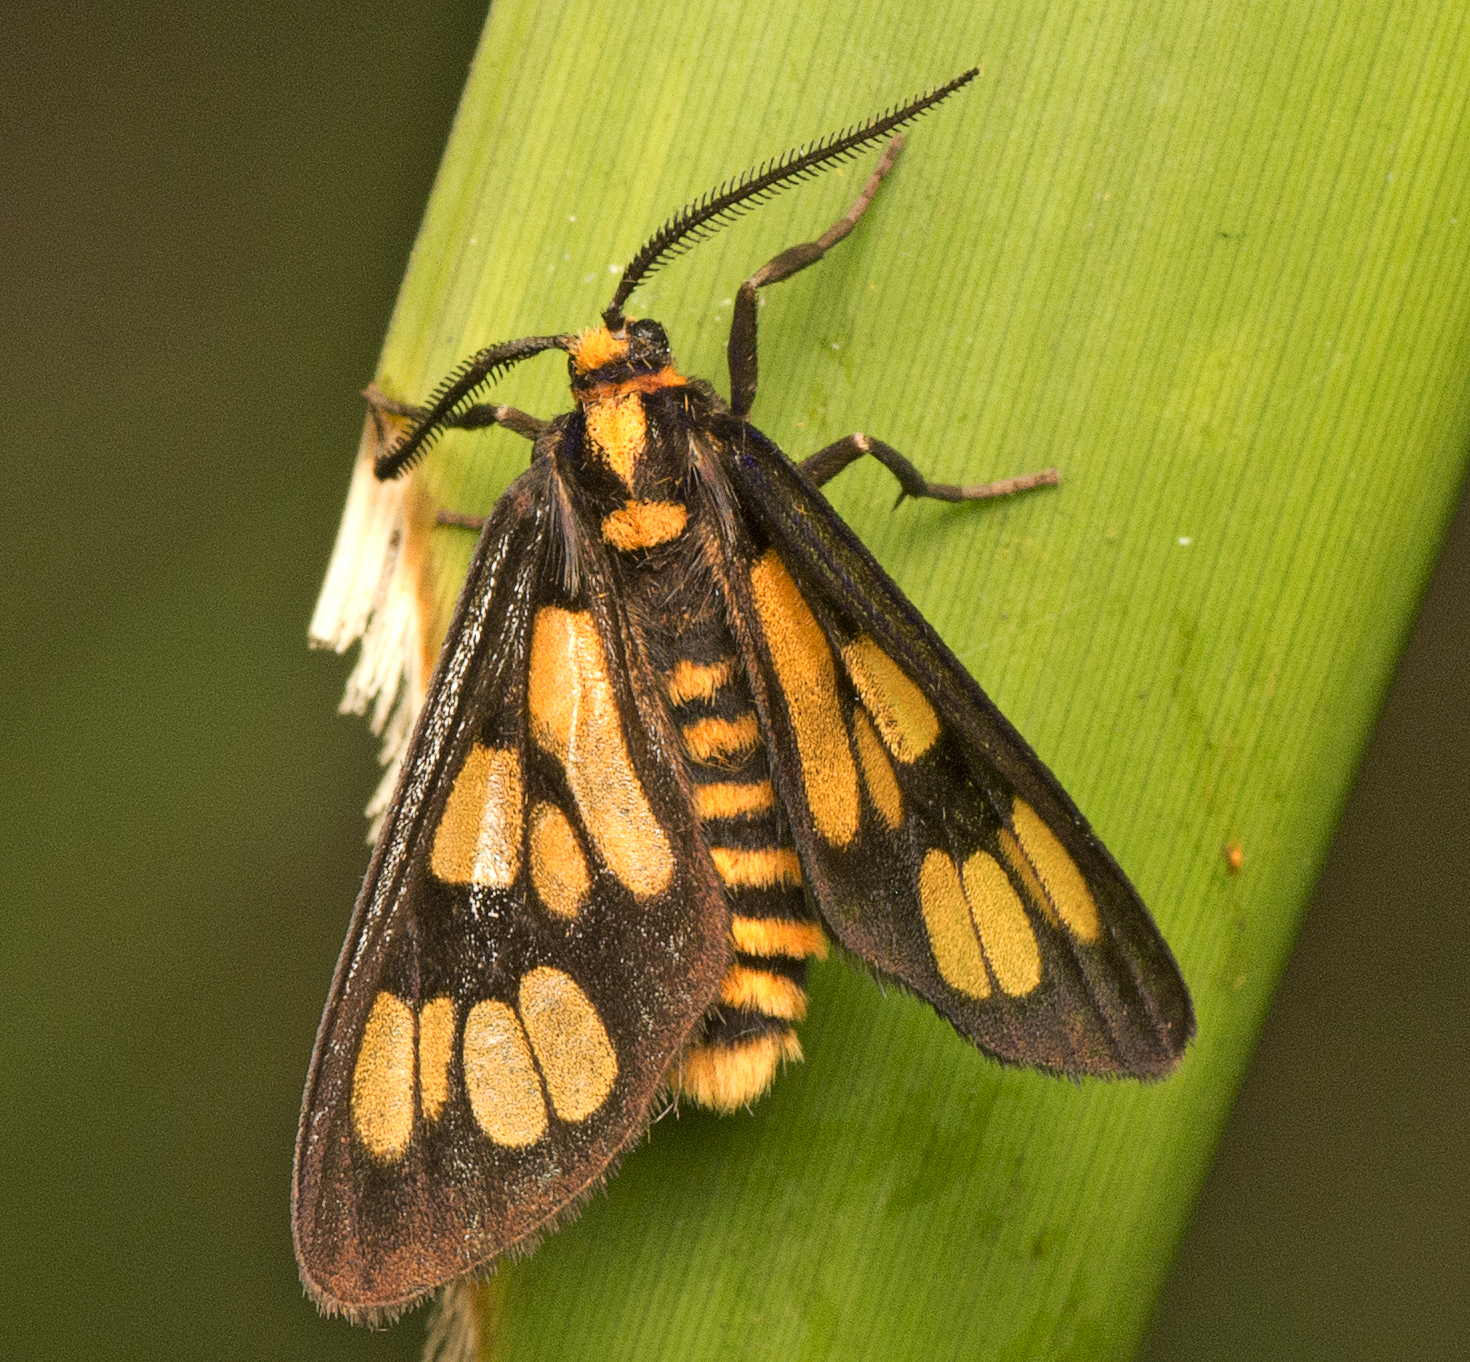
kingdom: Animalia
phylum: Arthropoda
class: Insecta
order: Lepidoptera
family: Erebidae
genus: Eressa
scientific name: Eressa geographica
